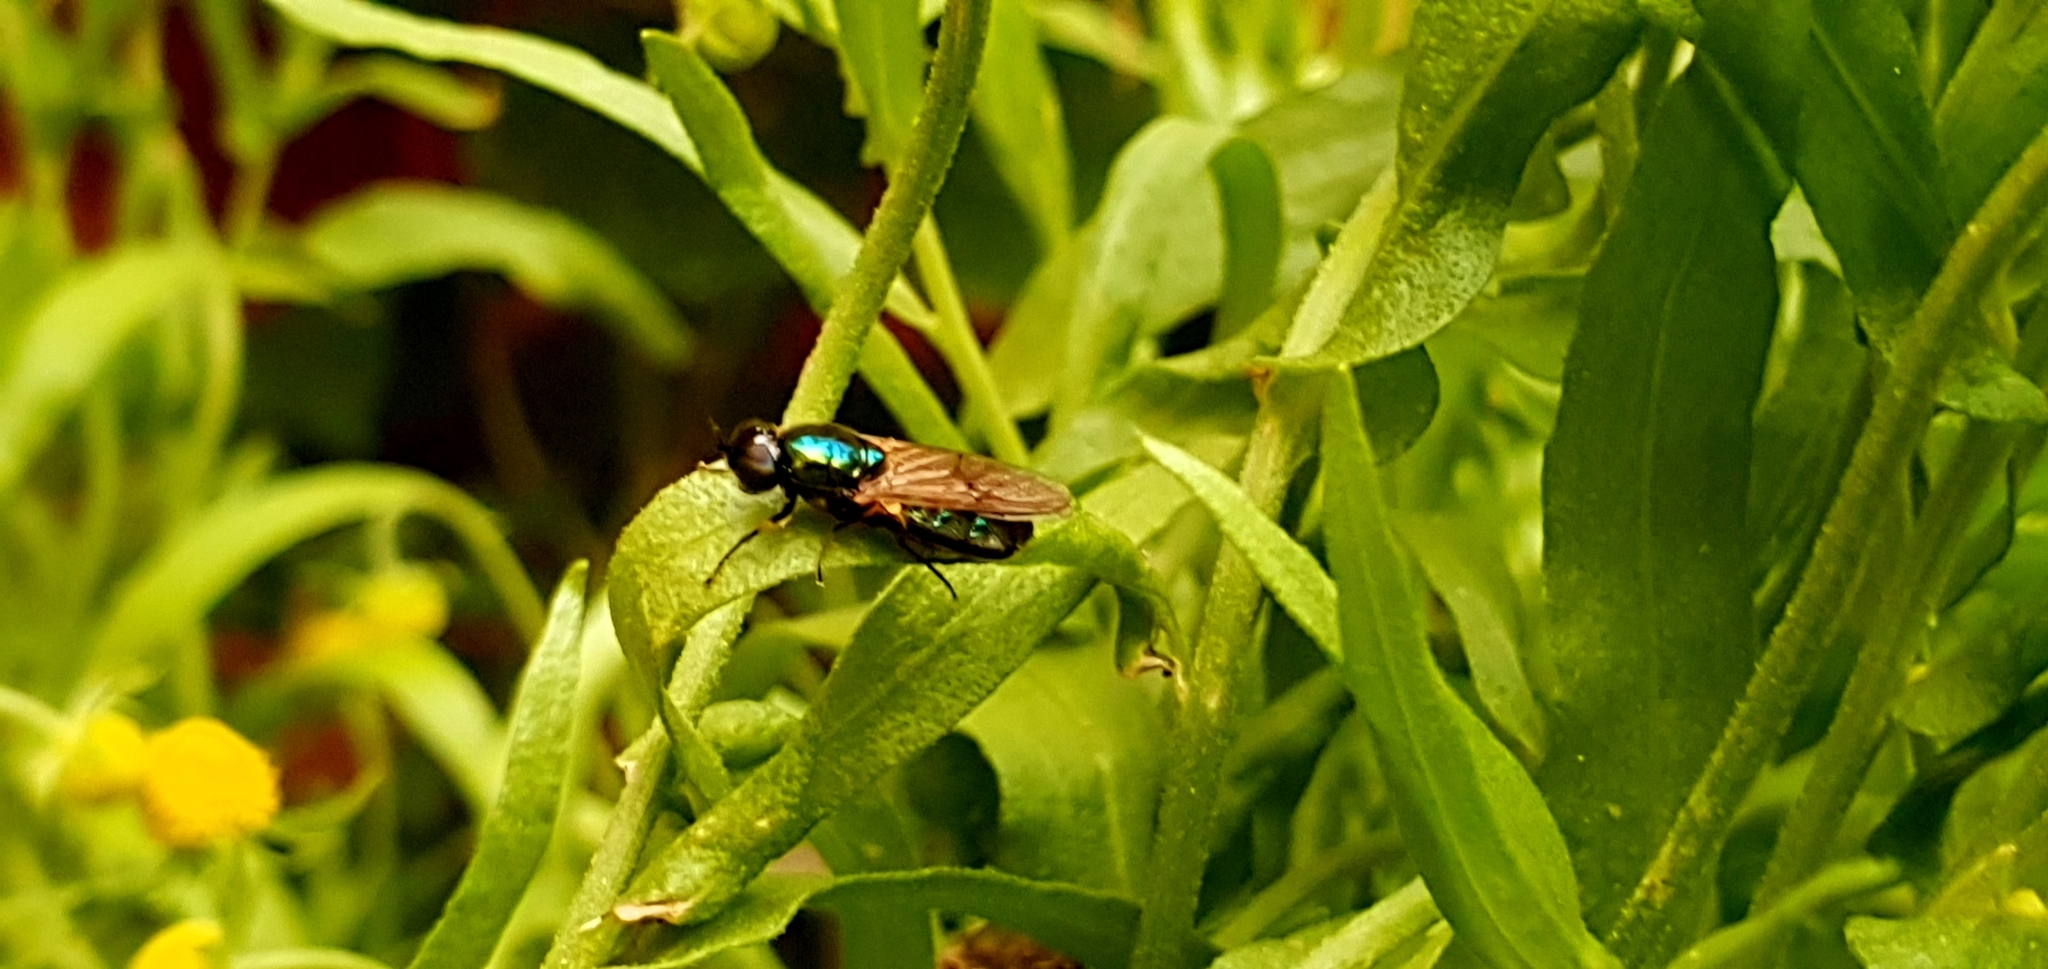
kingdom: Animalia
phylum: Arthropoda
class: Insecta
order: Diptera
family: Stratiomyidae
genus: Chloromyia
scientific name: Chloromyia formosa
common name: Soldier fly
